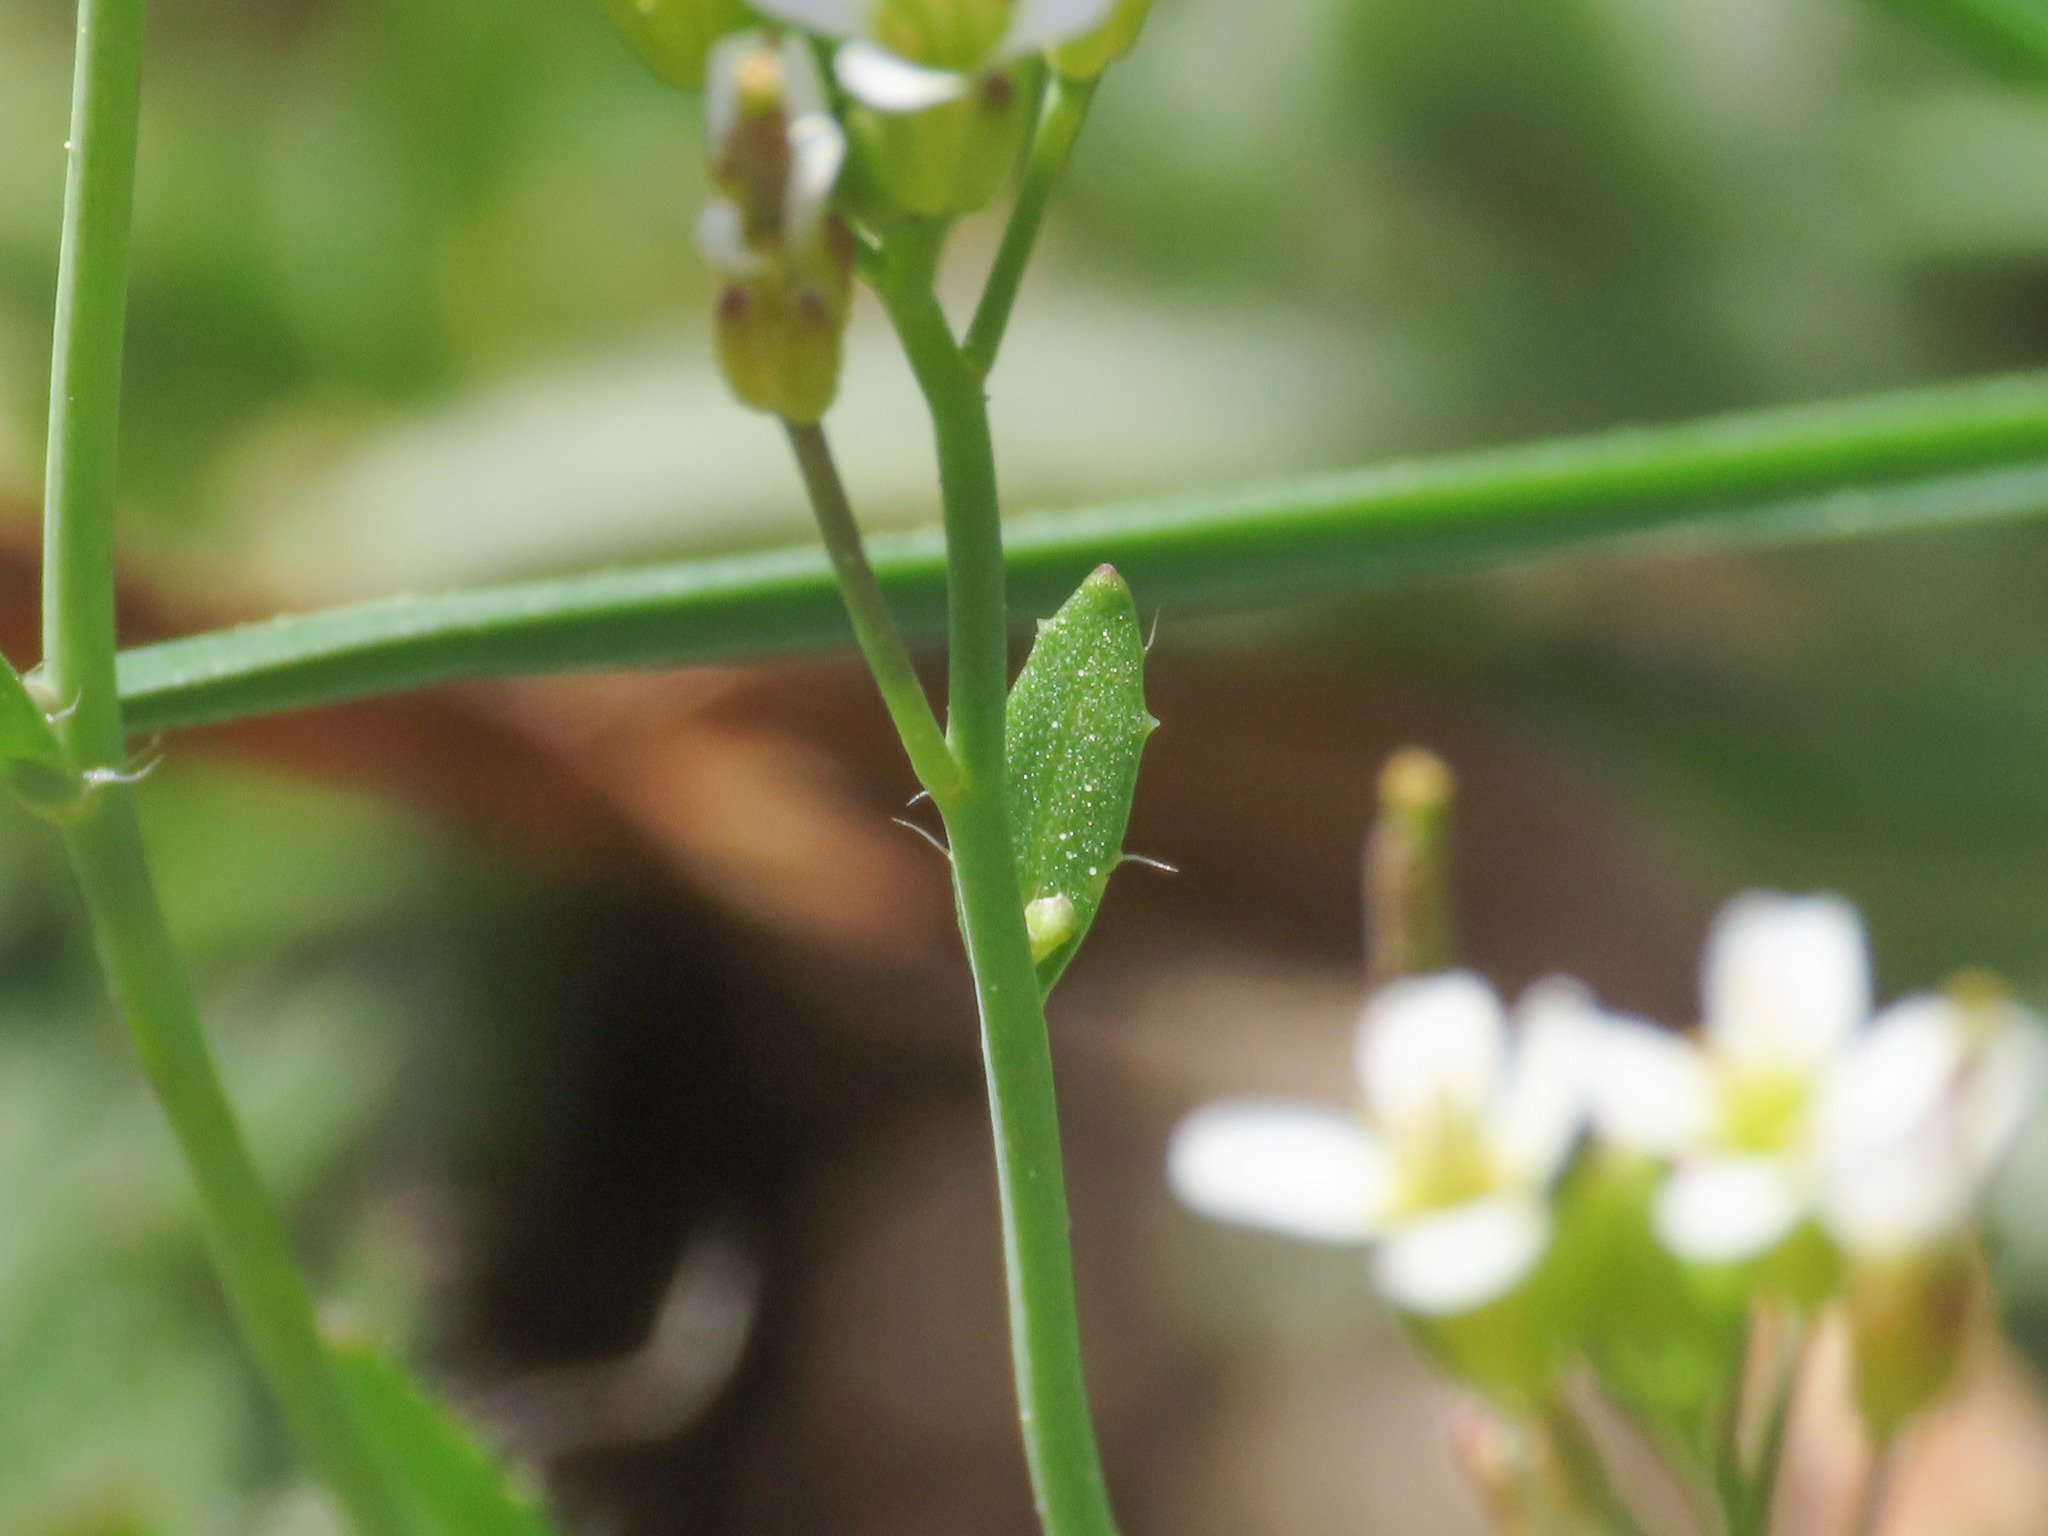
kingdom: Plantae
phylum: Tracheophyta
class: Magnoliopsida
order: Brassicales
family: Brassicaceae
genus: Arabidopsis
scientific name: Arabidopsis thaliana
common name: Thale cress
